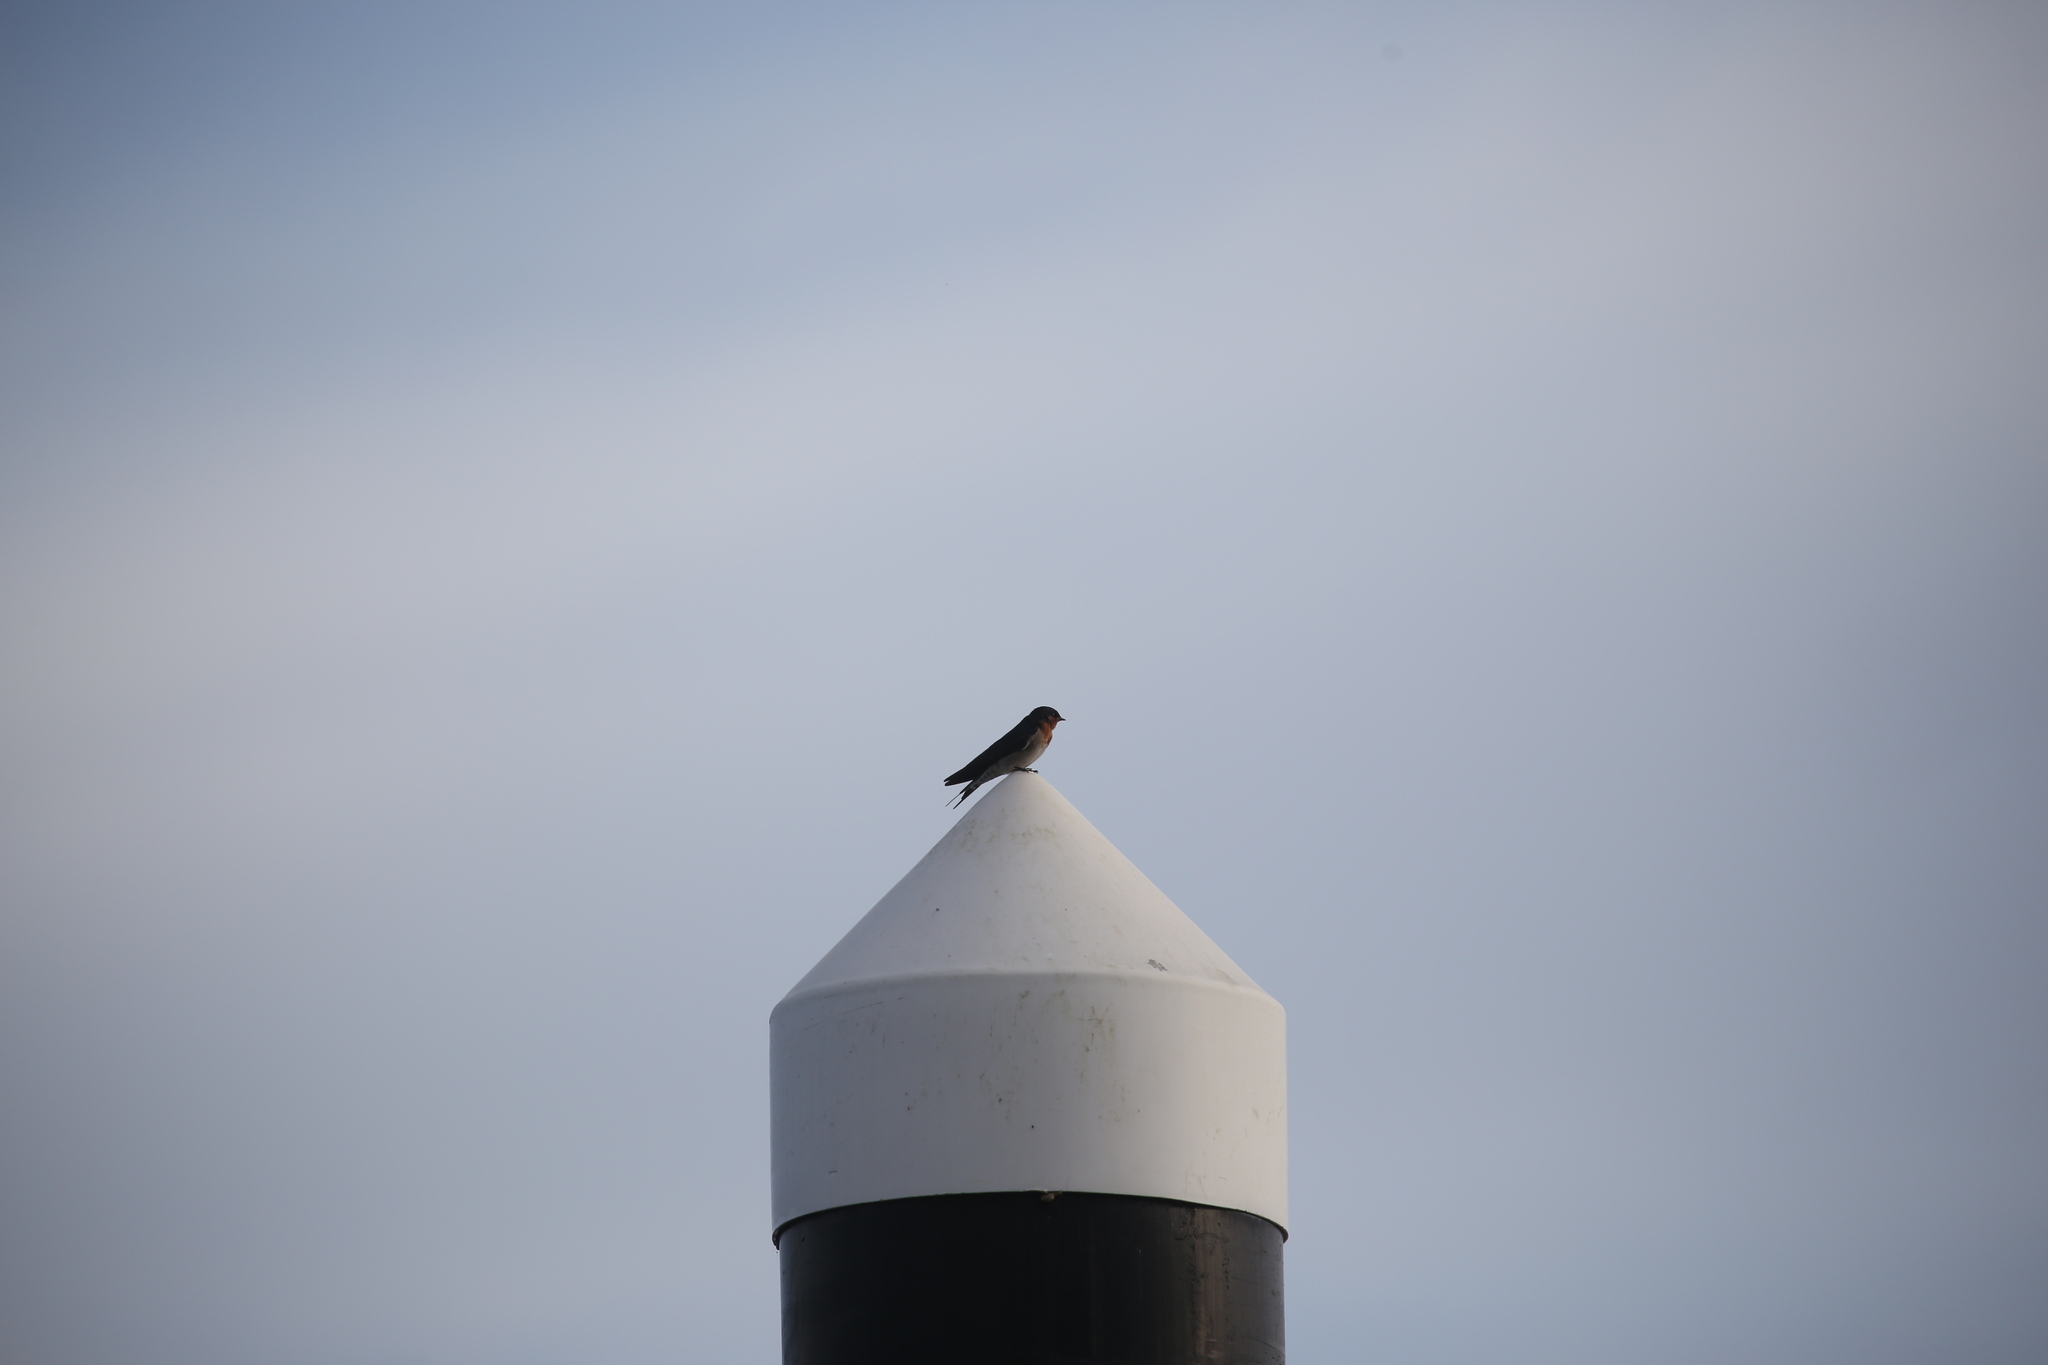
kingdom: Animalia
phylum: Chordata
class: Aves
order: Passeriformes
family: Hirundinidae
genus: Hirundo
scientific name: Hirundo neoxena
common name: Welcome swallow
